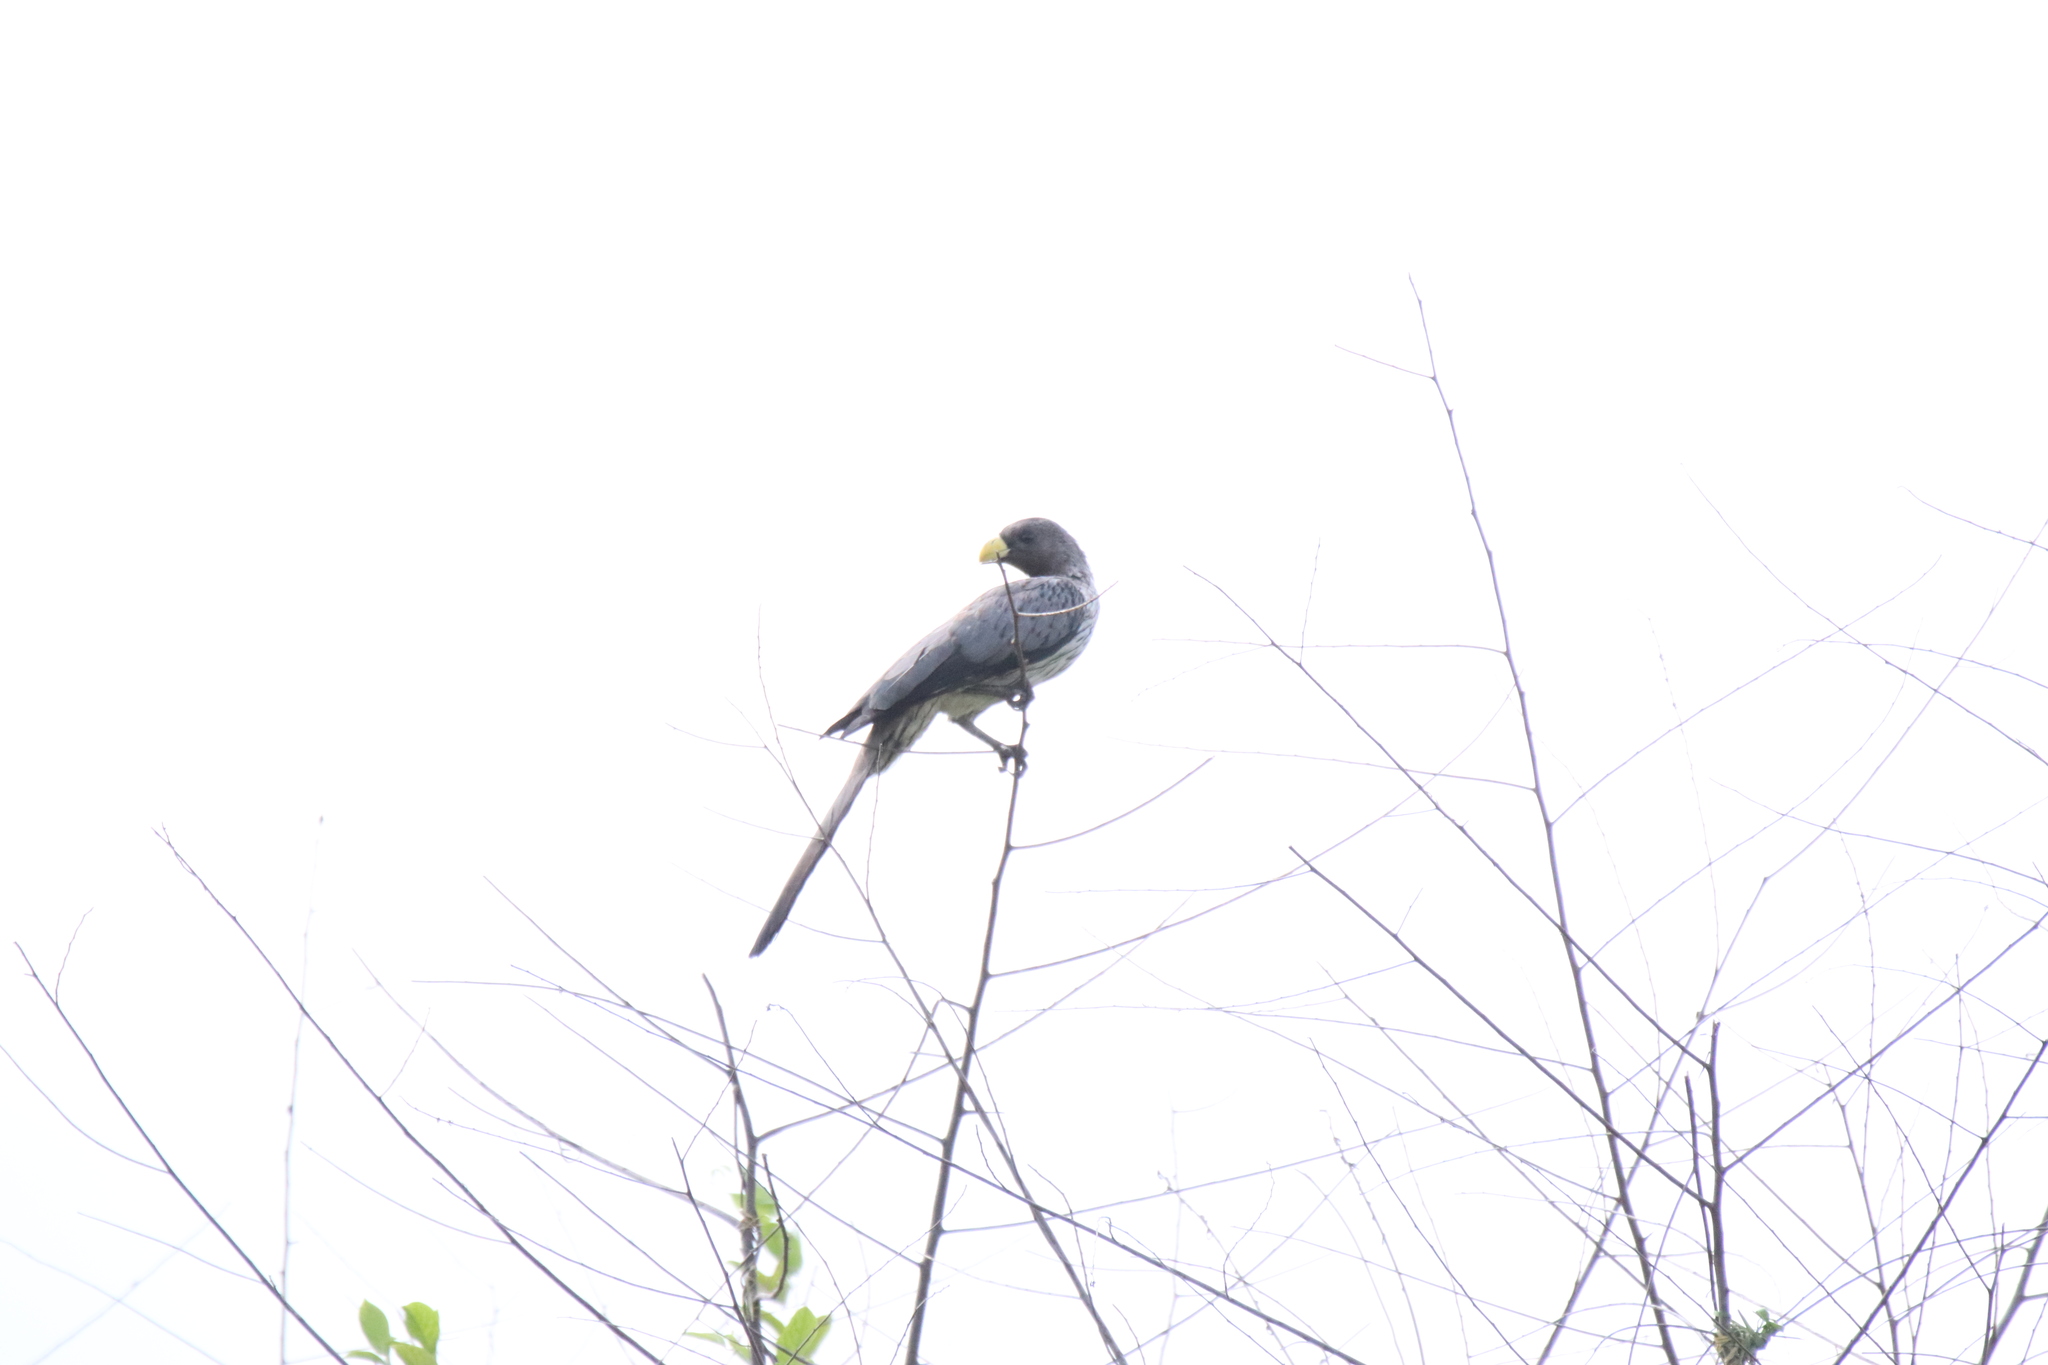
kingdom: Animalia
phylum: Chordata
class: Aves
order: Musophagiformes
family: Musophagidae
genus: Crinifer
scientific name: Crinifer piscator
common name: Western plantain-eater
